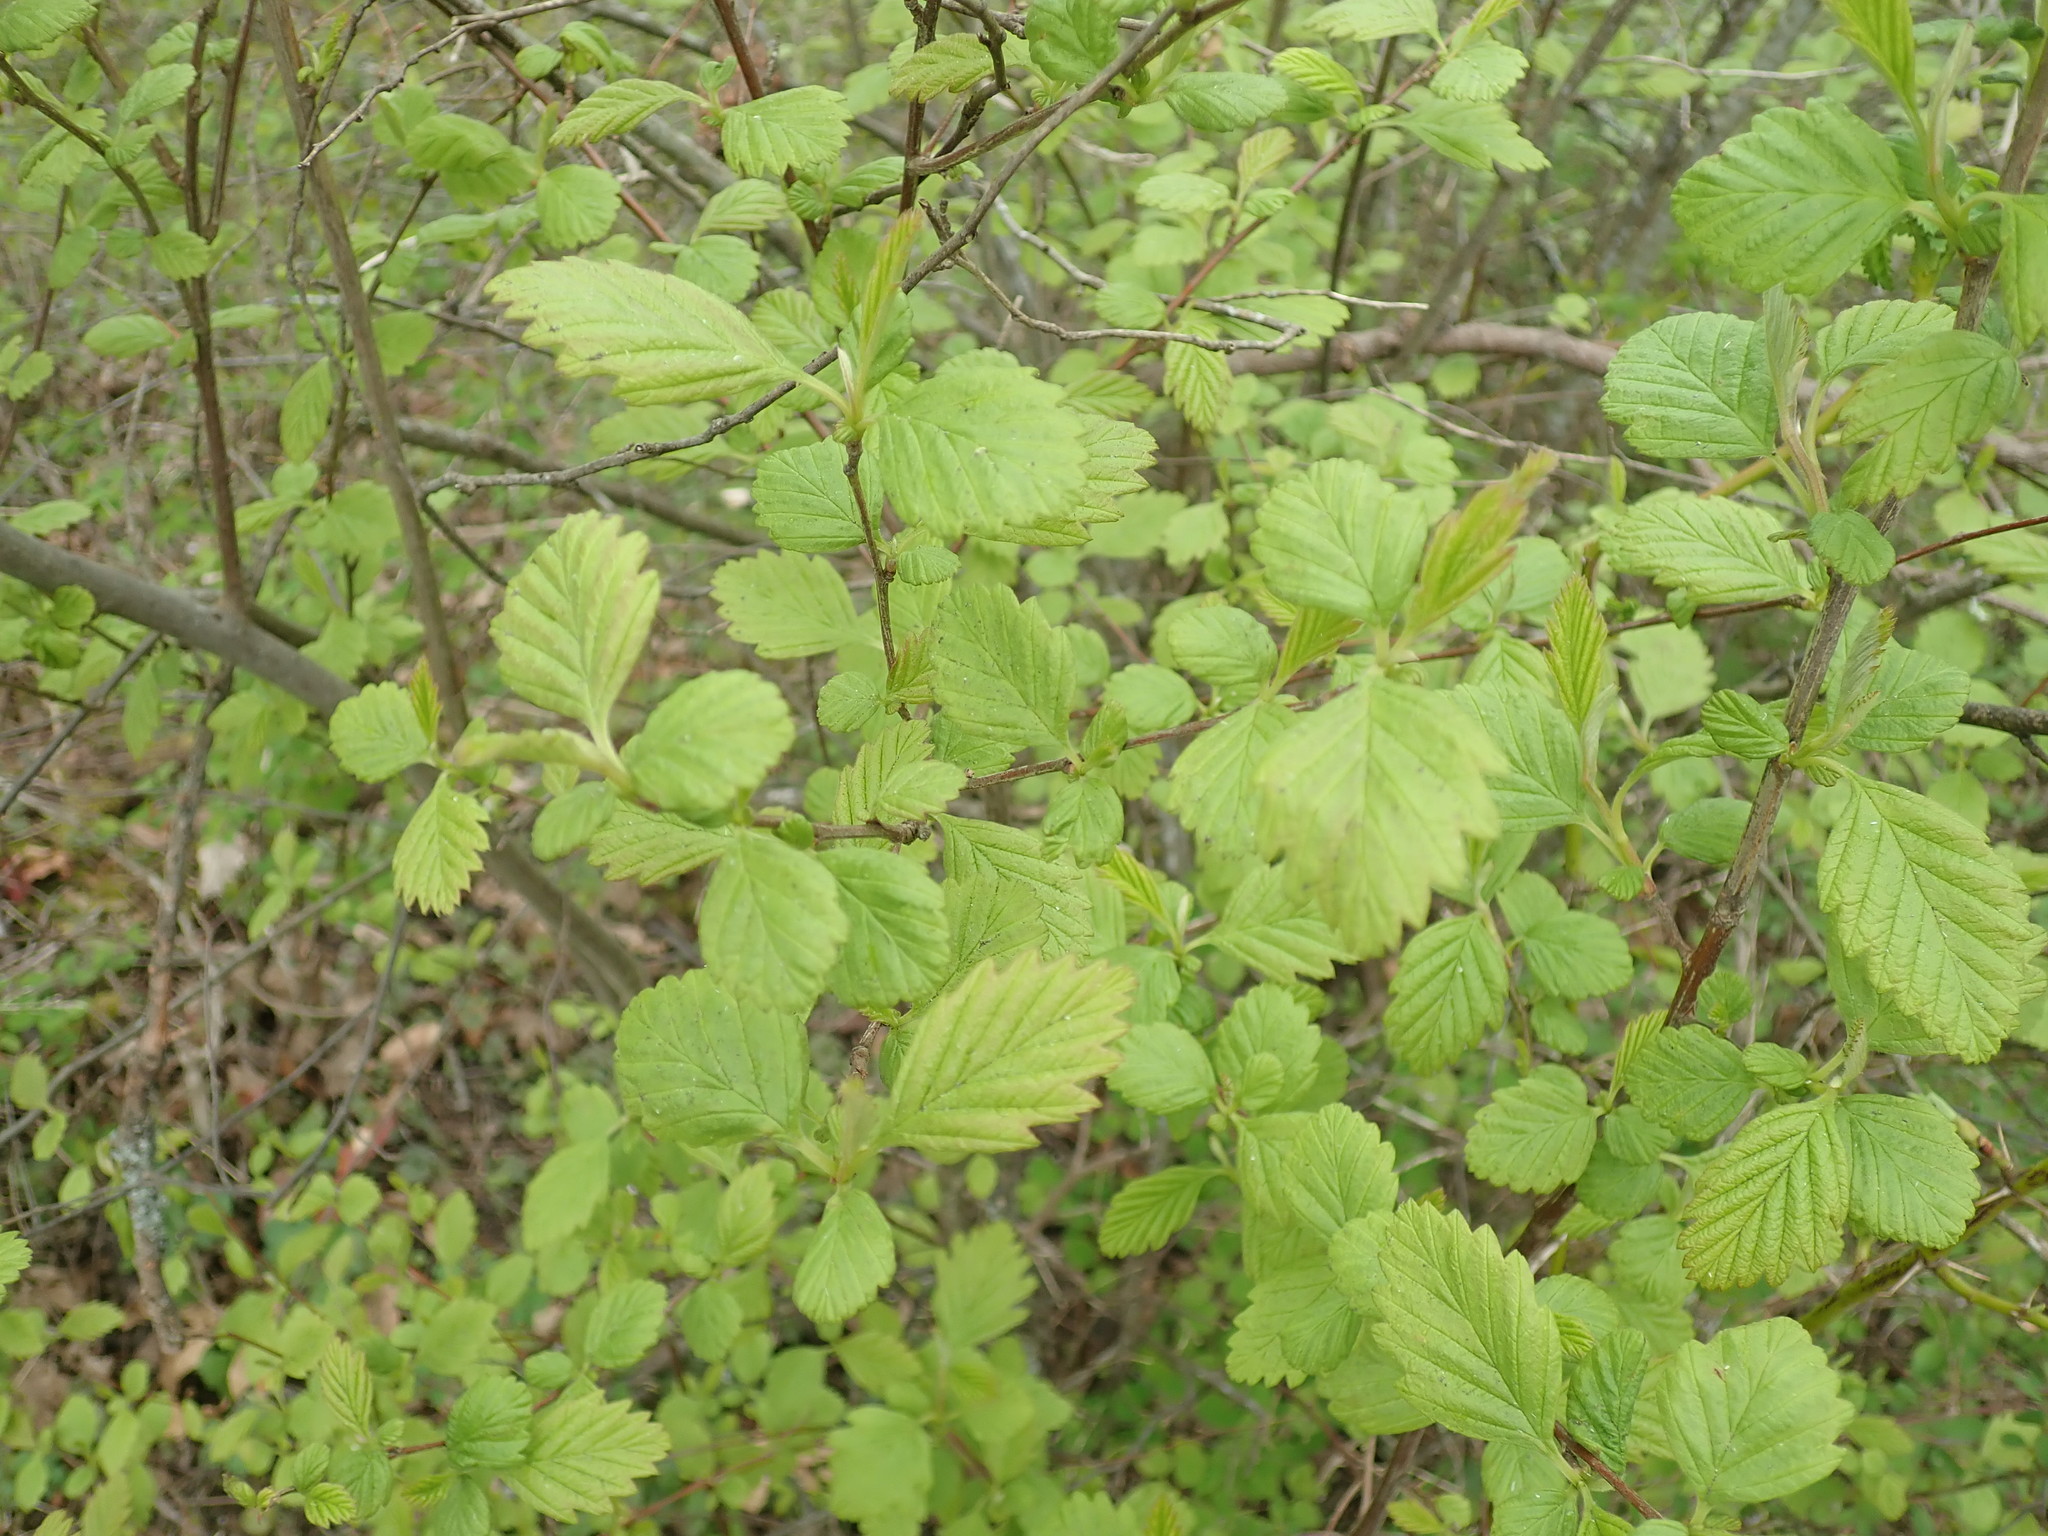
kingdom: Plantae
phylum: Tracheophyta
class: Magnoliopsida
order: Rosales
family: Rosaceae
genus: Holodiscus
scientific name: Holodiscus discolor
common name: Oceanspray
